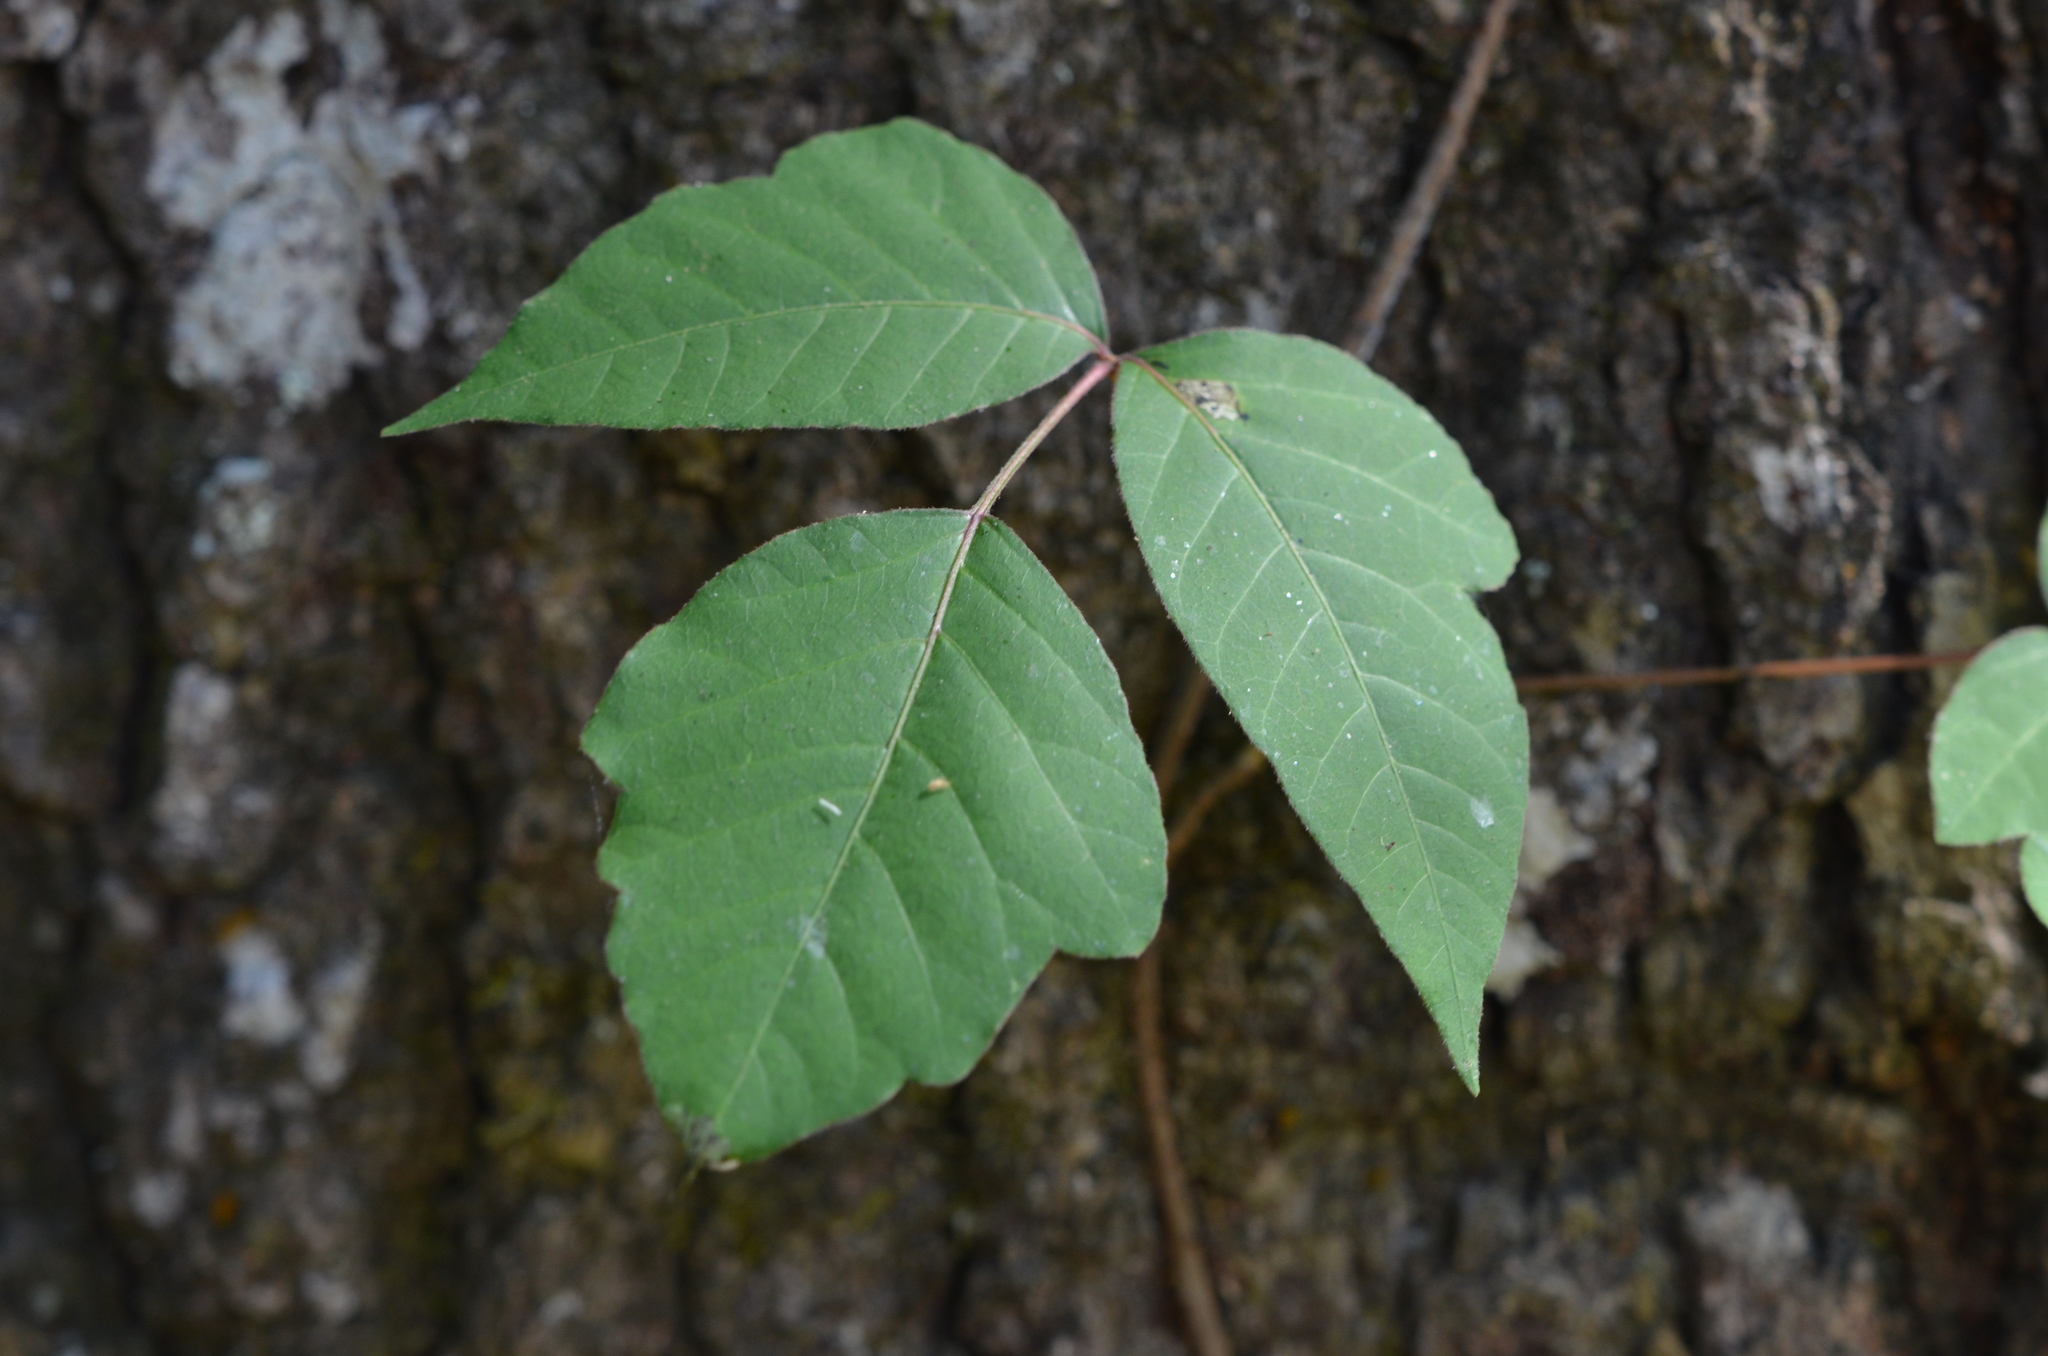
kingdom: Plantae
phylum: Tracheophyta
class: Magnoliopsida
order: Sapindales
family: Anacardiaceae
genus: Toxicodendron
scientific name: Toxicodendron radicans
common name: Poison ivy
